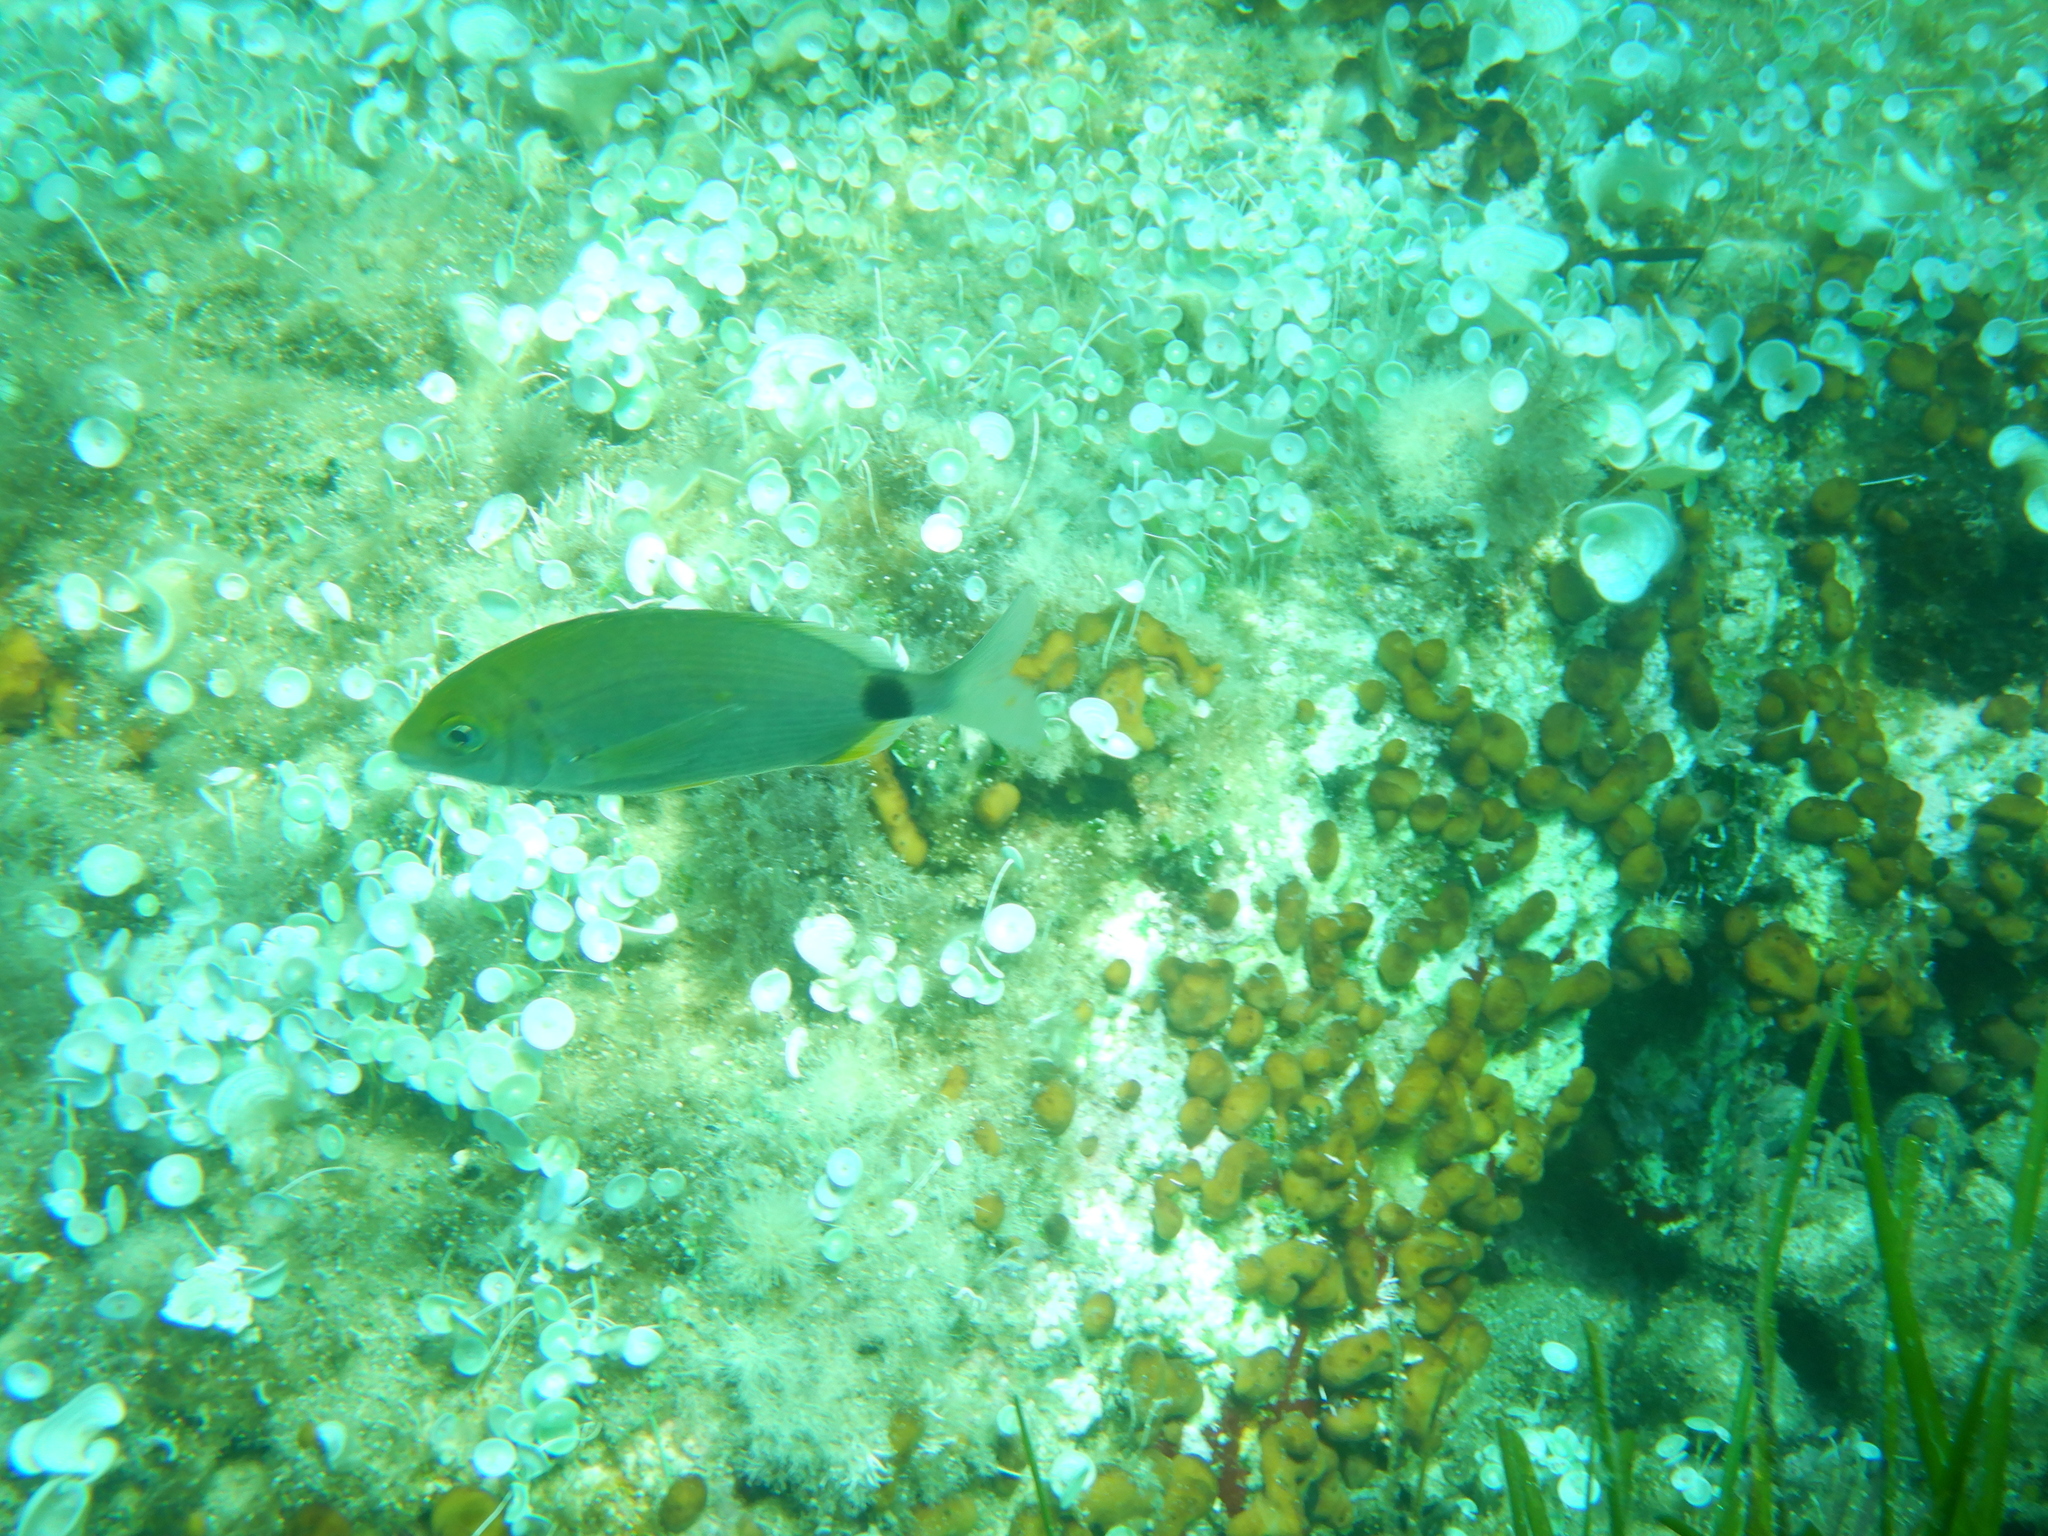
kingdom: Animalia
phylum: Chordata
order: Perciformes
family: Sparidae
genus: Diplodus
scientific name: Diplodus annularis
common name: Annular seabream
